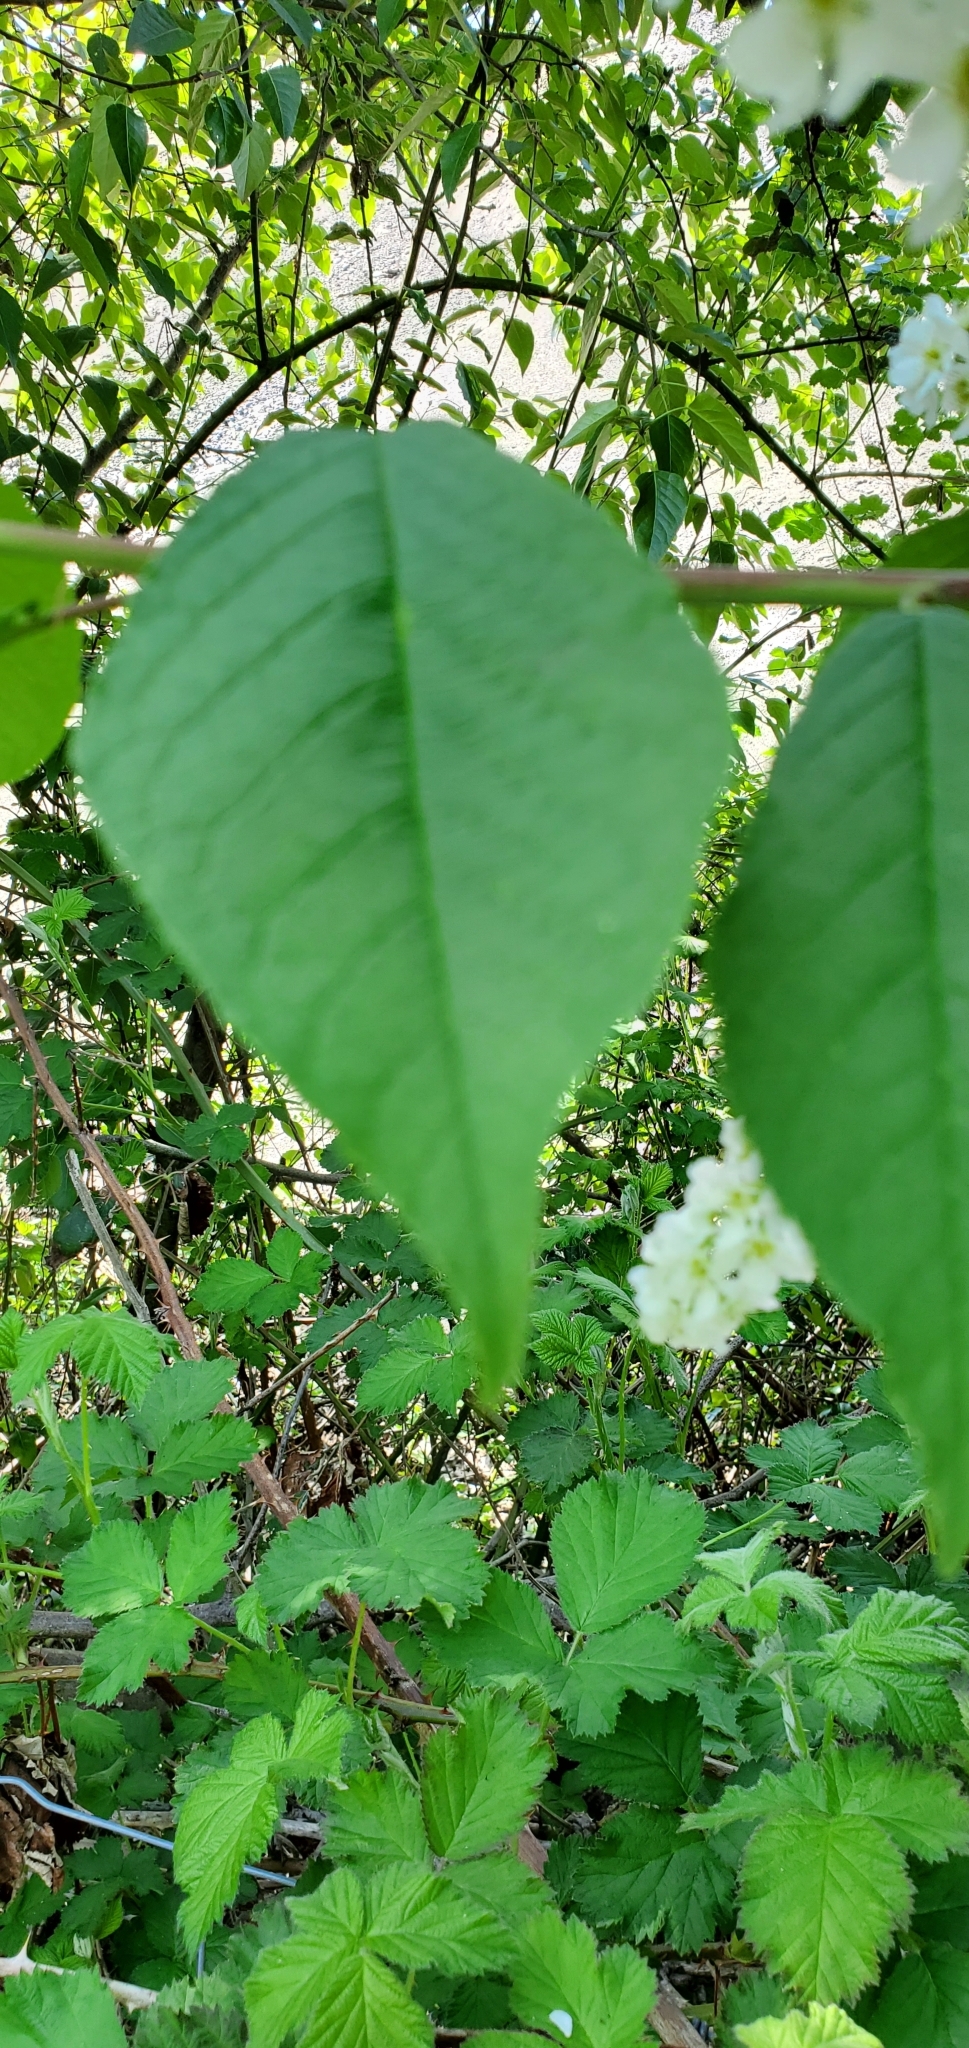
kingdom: Plantae
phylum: Tracheophyta
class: Magnoliopsida
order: Rosales
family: Rosaceae
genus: Prunus
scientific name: Prunus padus
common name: Bird cherry
